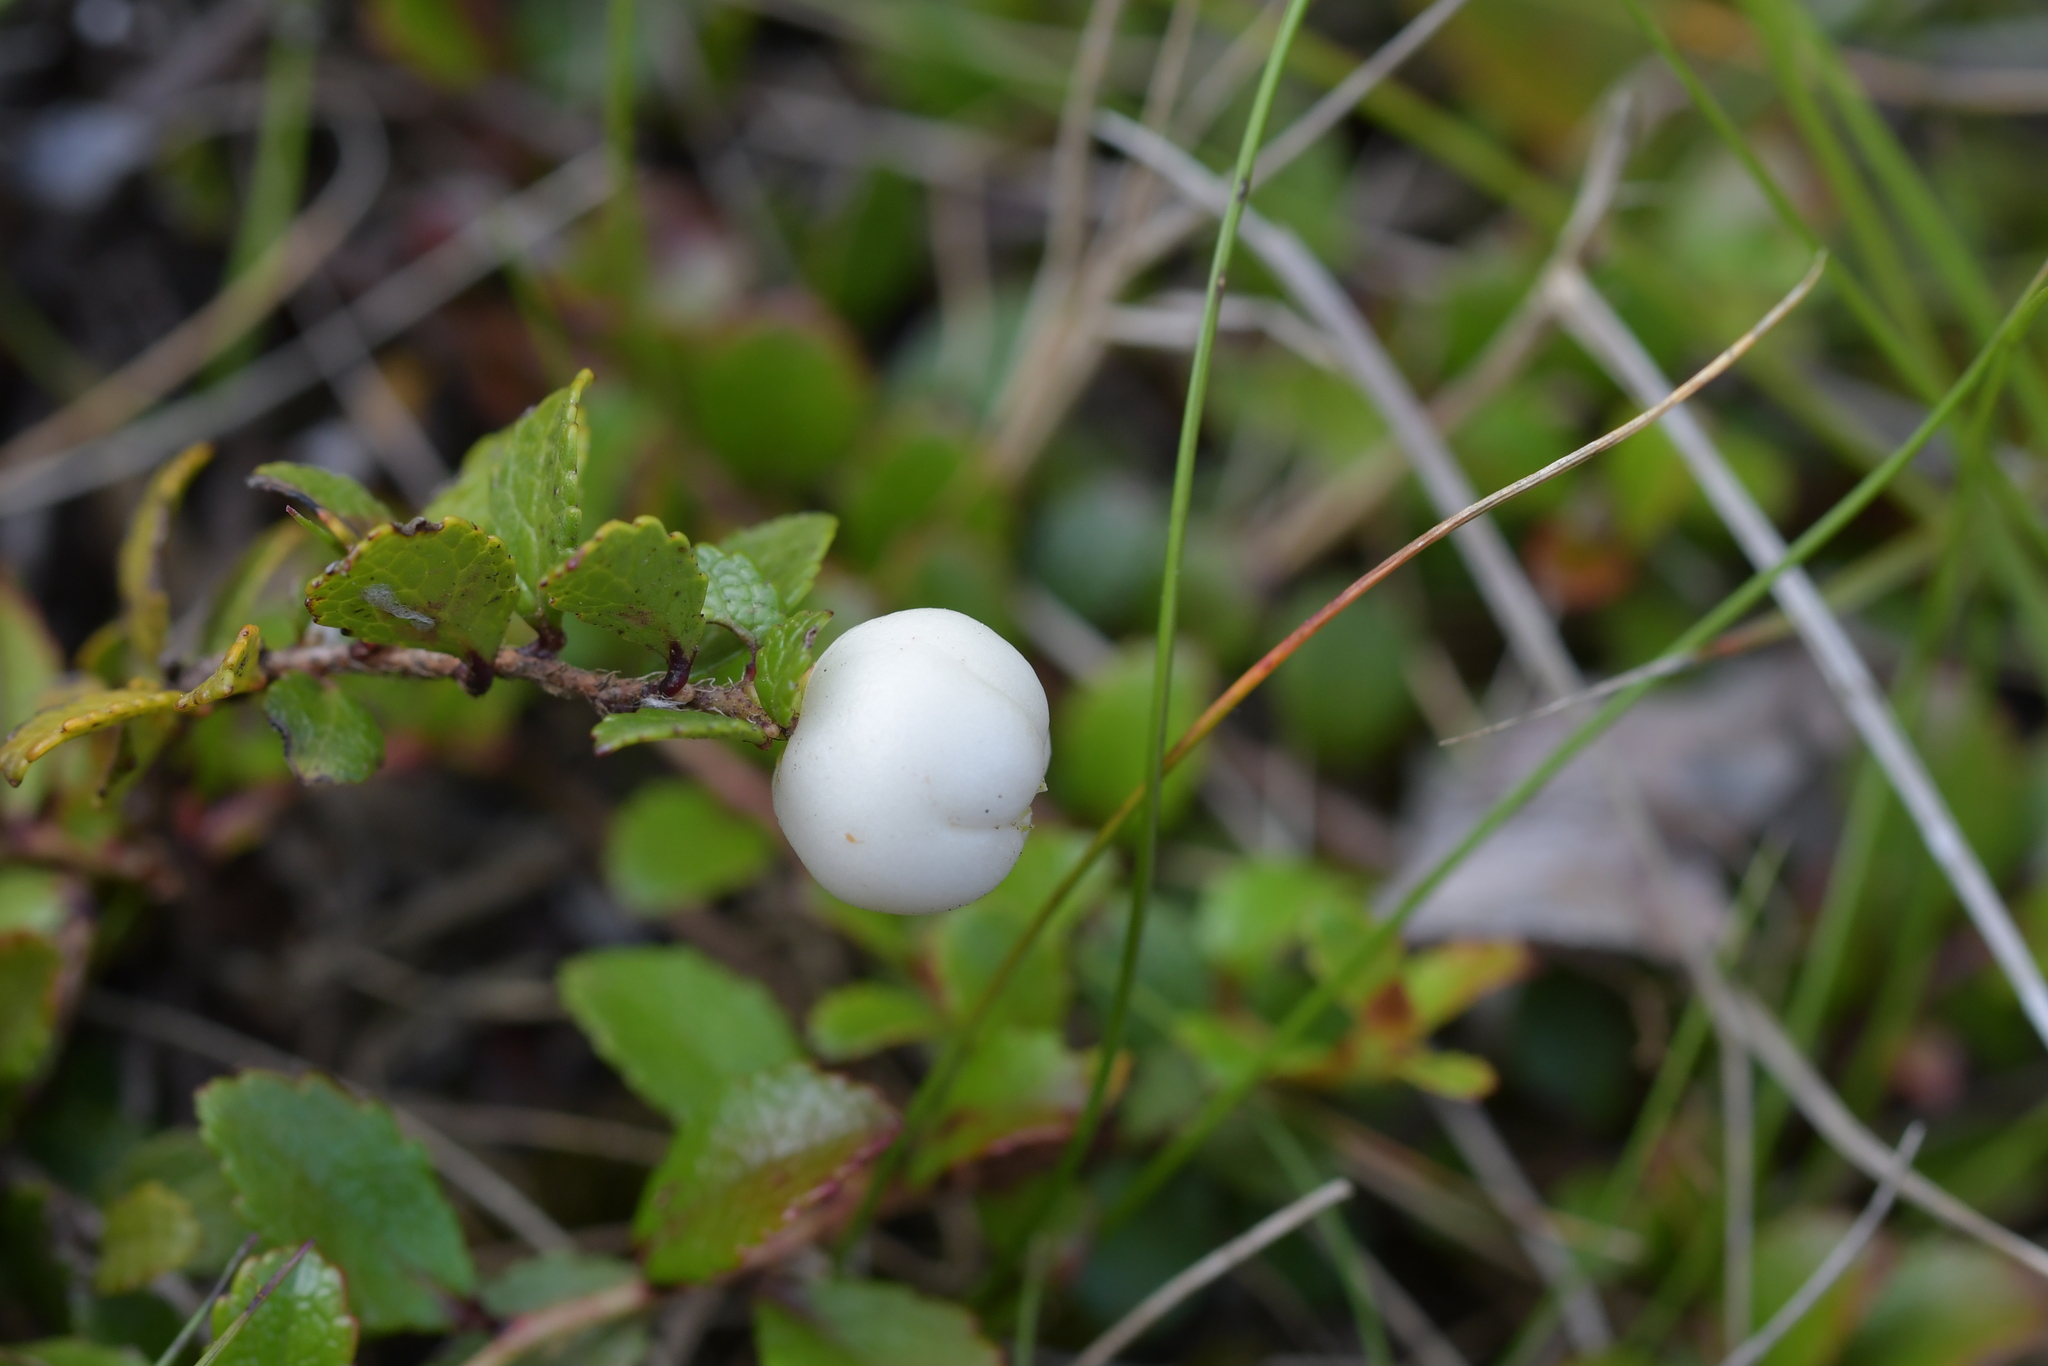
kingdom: Plantae
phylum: Tracheophyta
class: Magnoliopsida
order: Ericales
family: Ericaceae
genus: Gaultheria
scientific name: Gaultheria depressa
